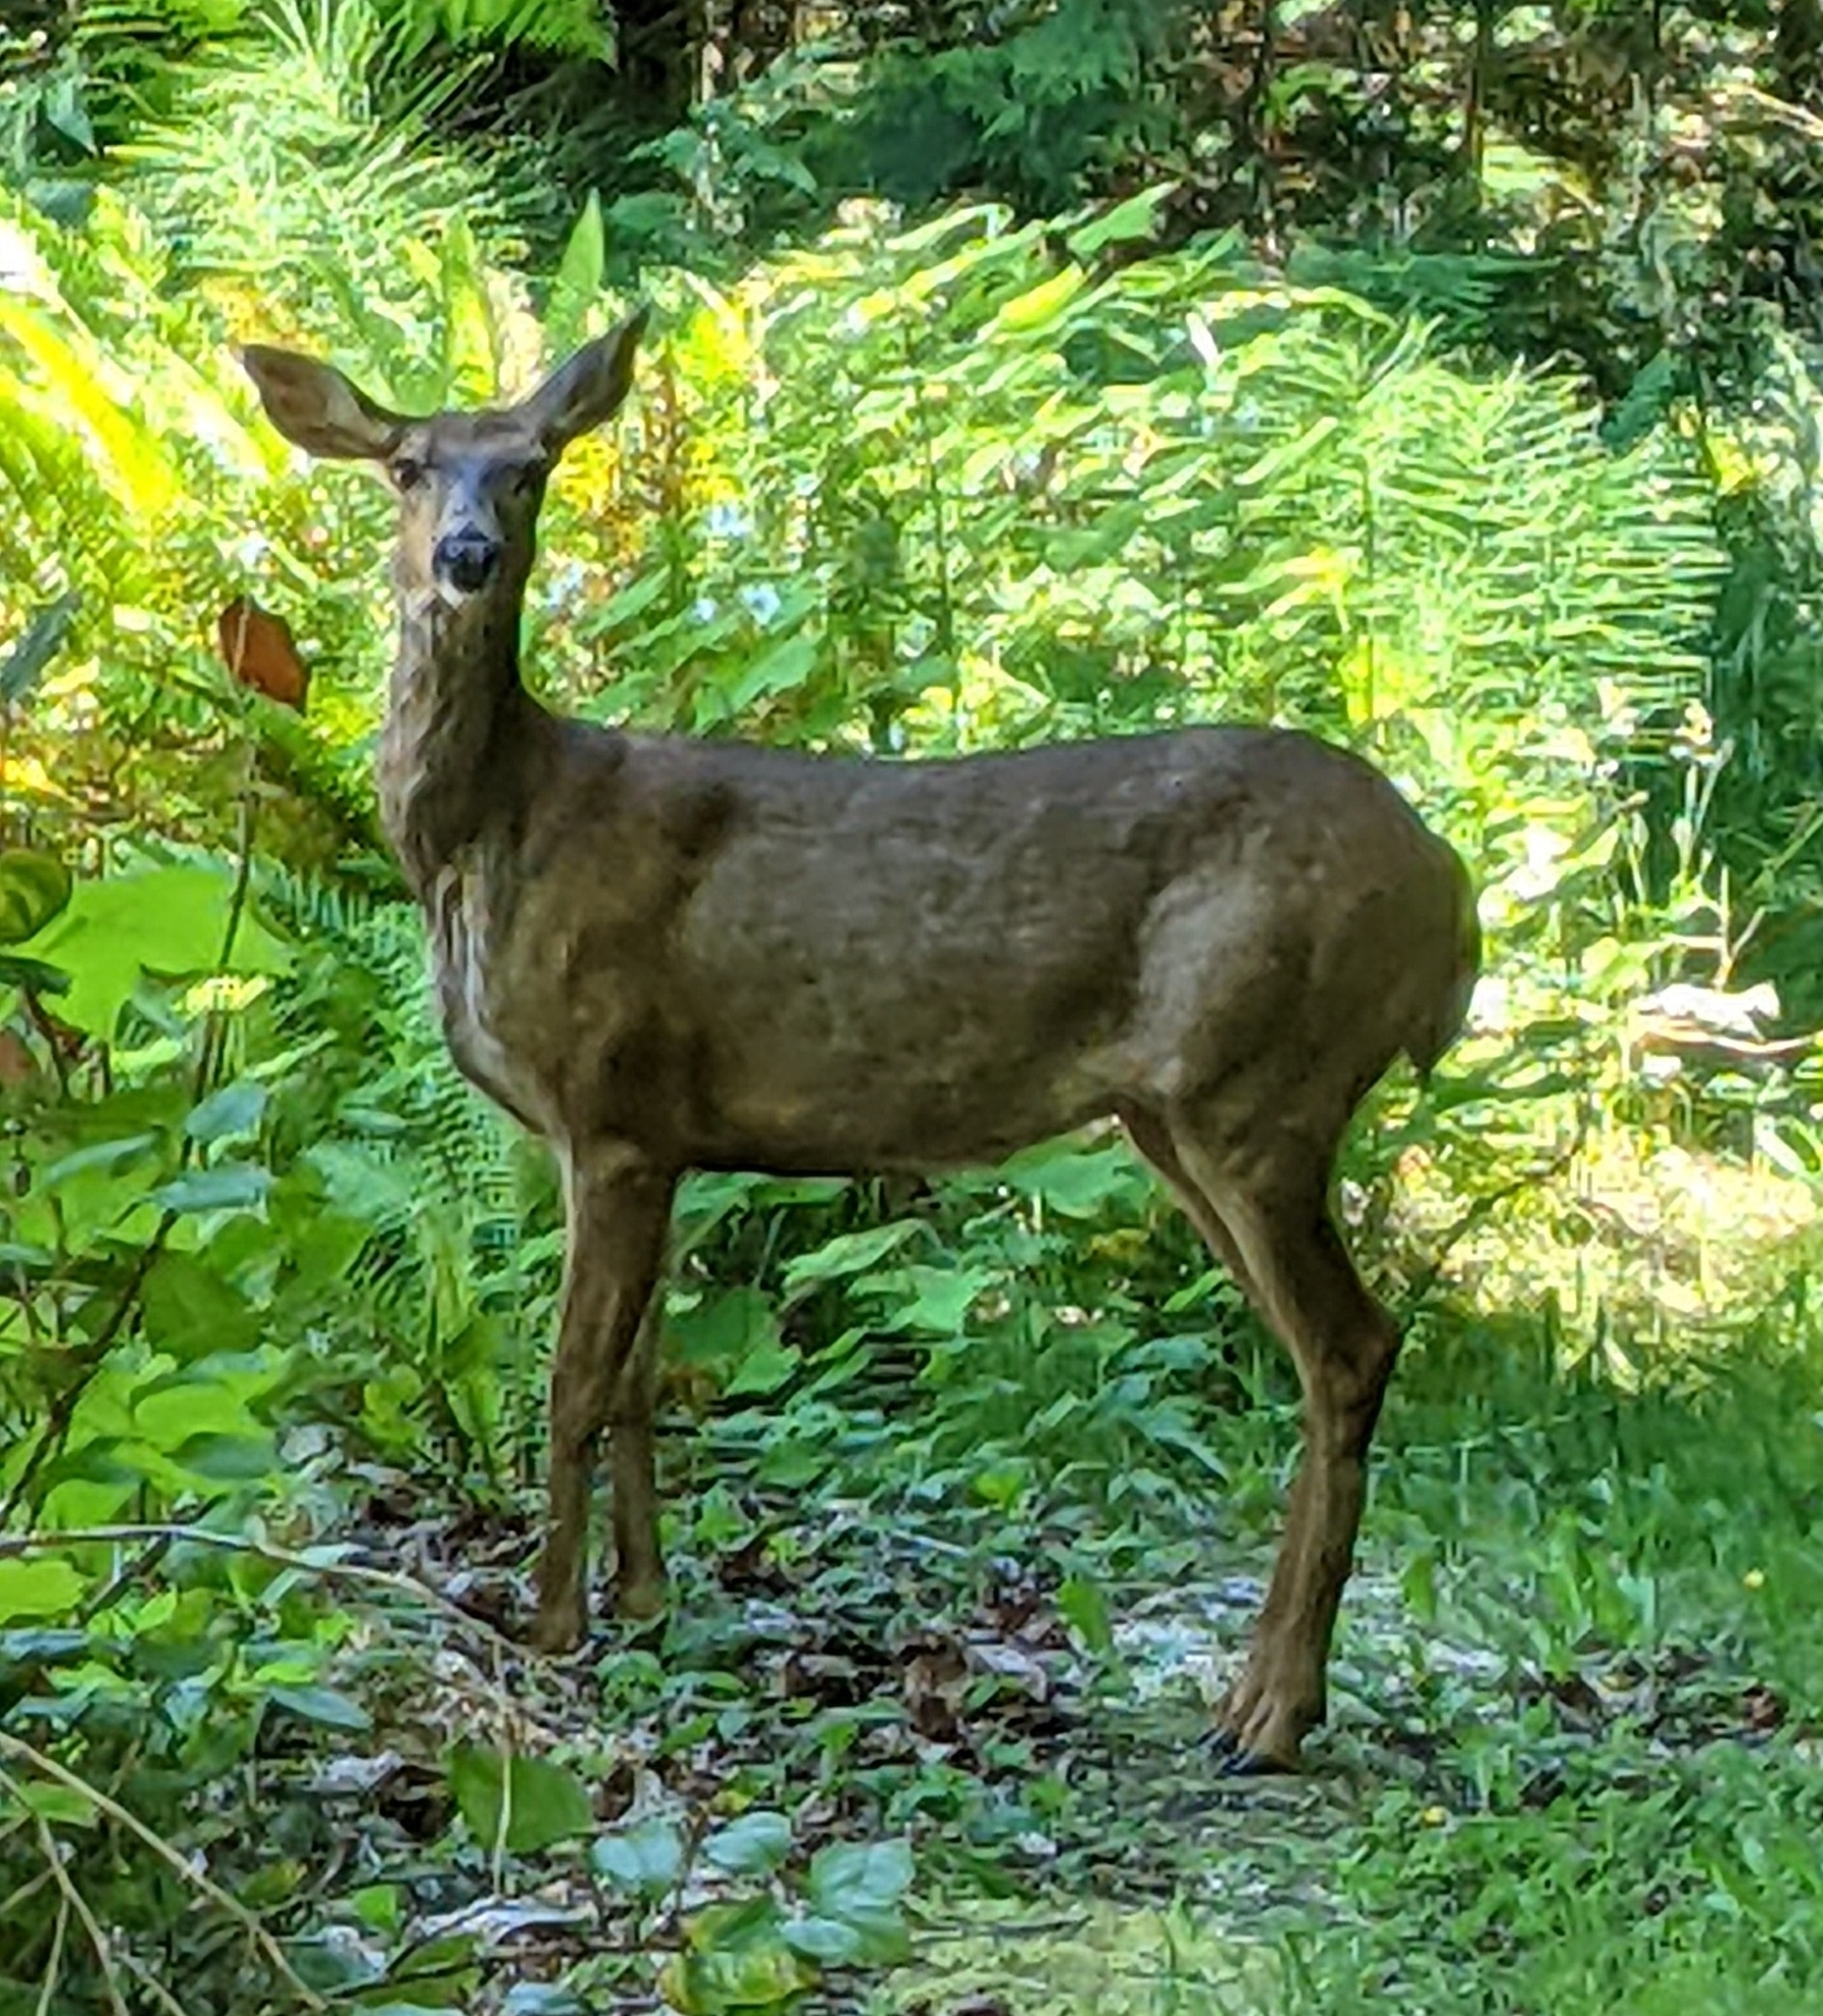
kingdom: Animalia
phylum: Chordata
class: Mammalia
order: Artiodactyla
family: Cervidae
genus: Odocoileus
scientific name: Odocoileus hemionus
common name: Mule deer
